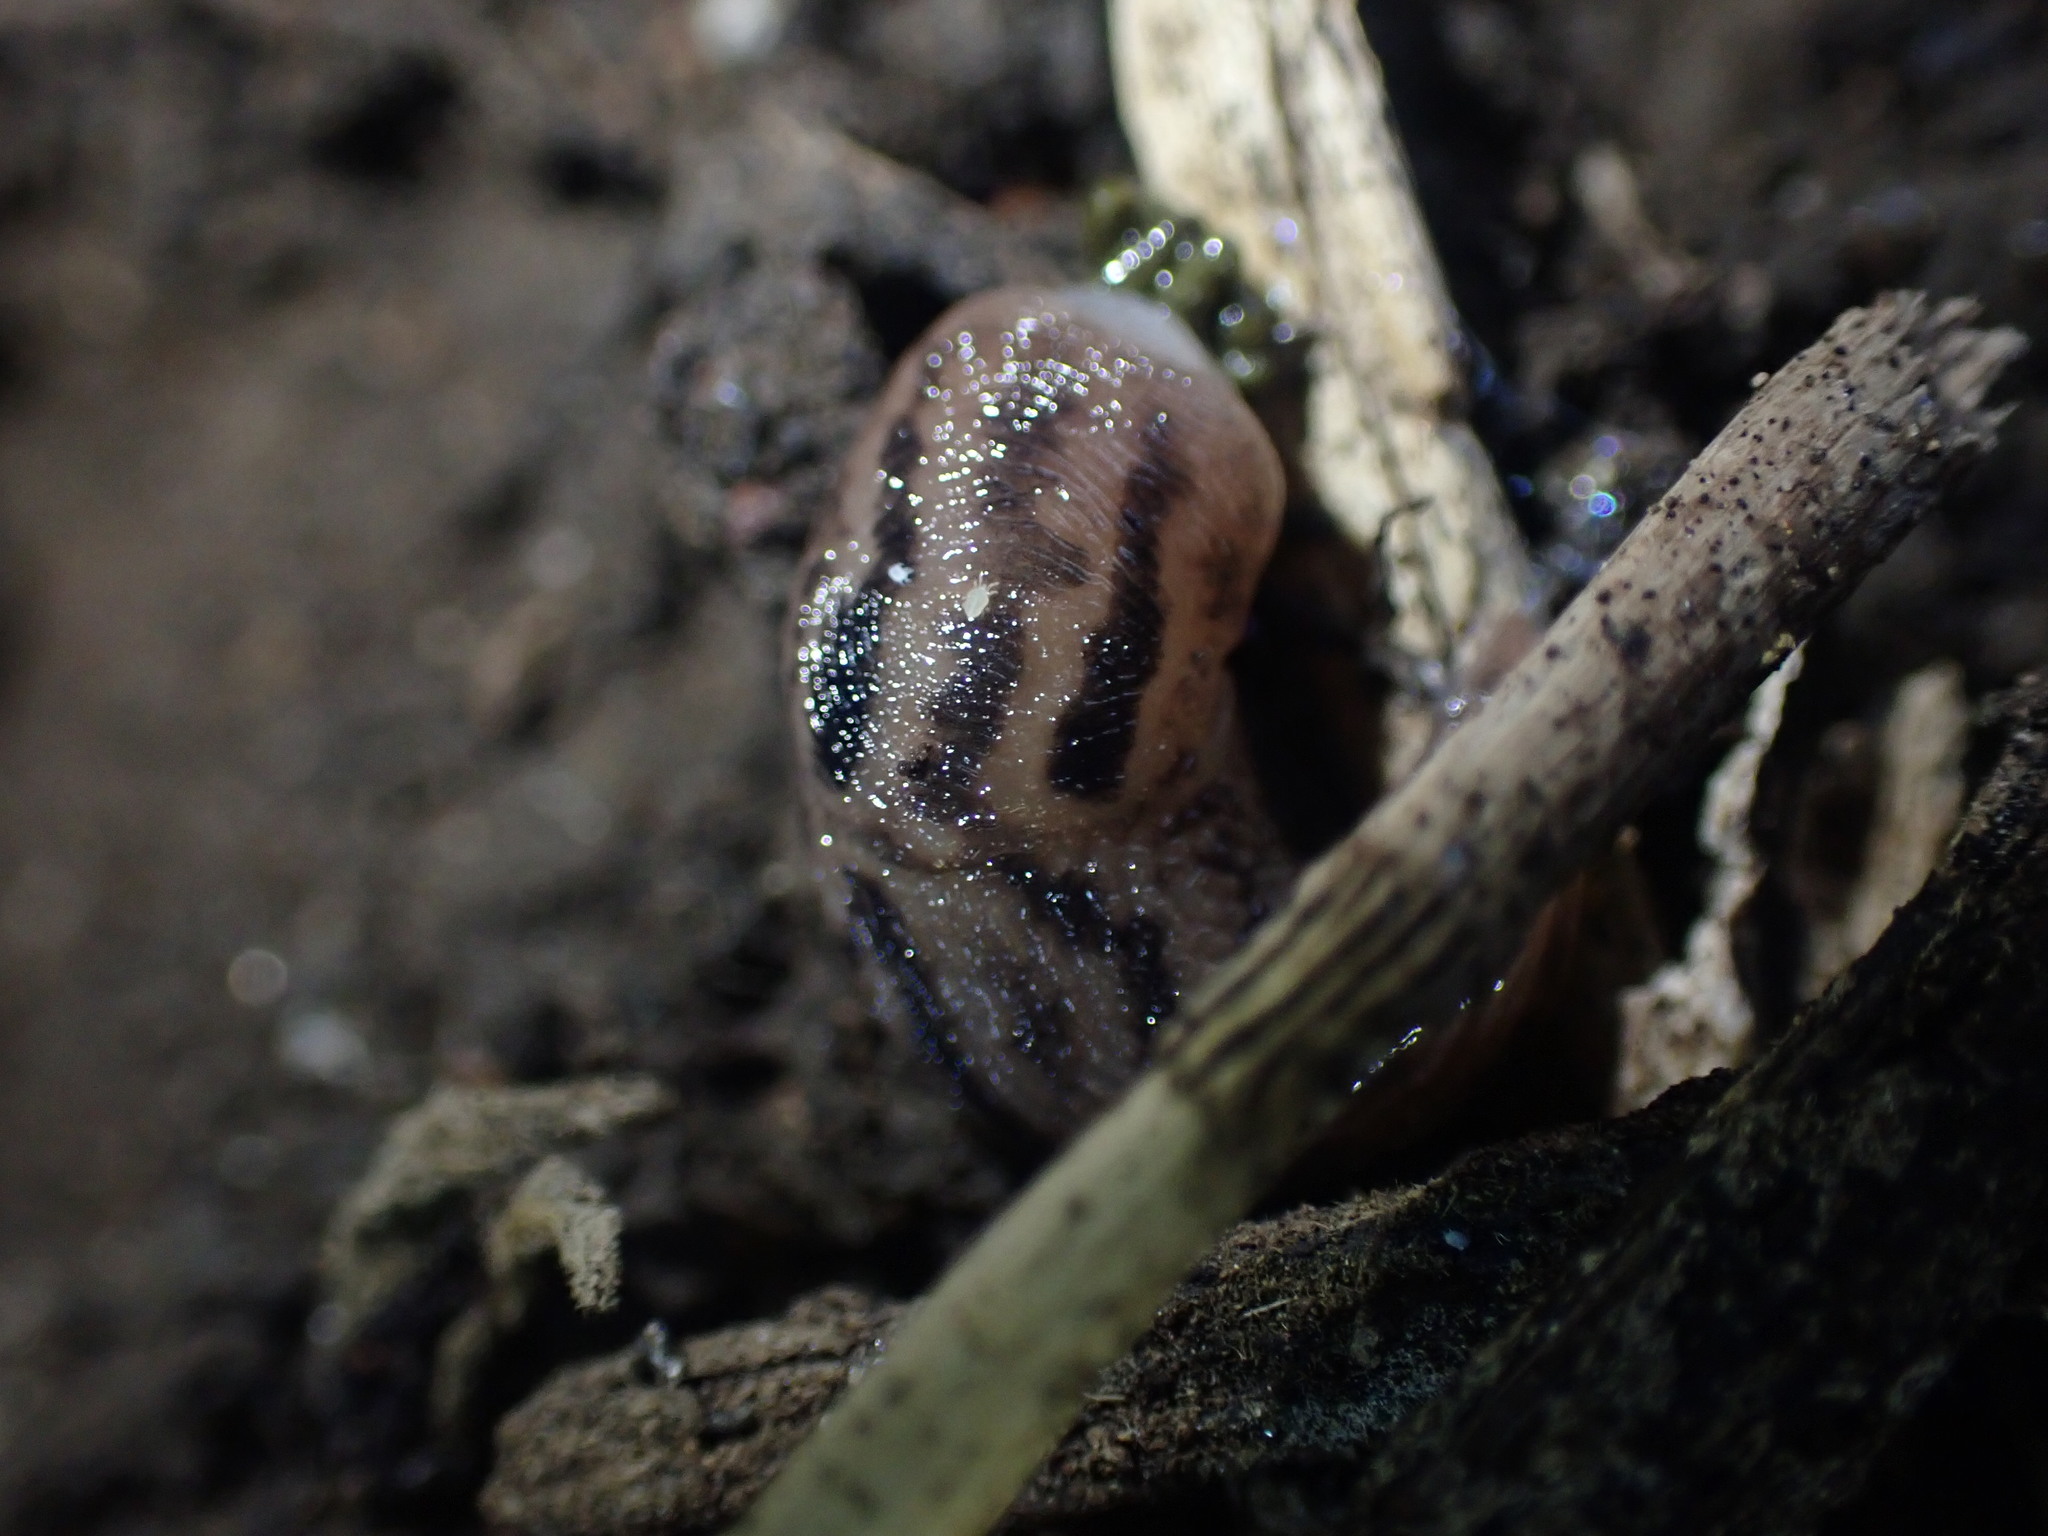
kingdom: Animalia
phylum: Mollusca
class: Gastropoda
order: Stylommatophora
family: Limacidae
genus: Ambigolimax
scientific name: Ambigolimax
